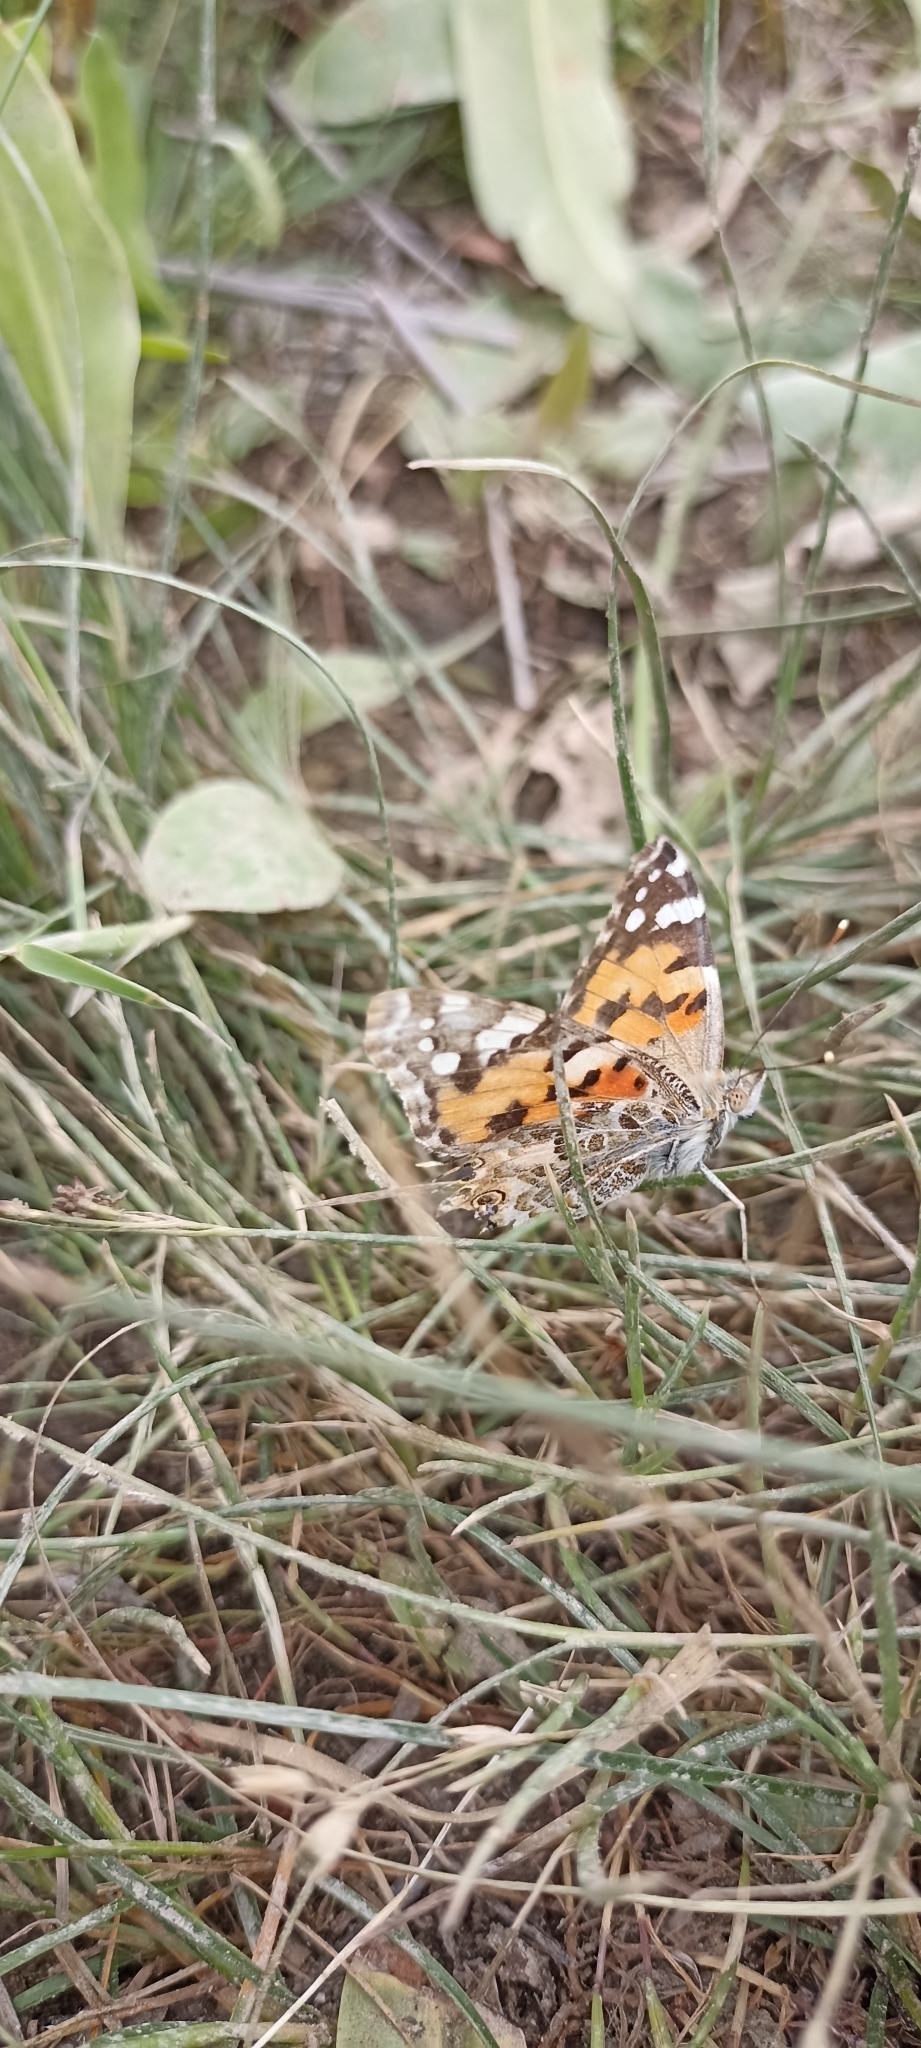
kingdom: Animalia
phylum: Arthropoda
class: Insecta
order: Lepidoptera
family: Nymphalidae
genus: Vanessa
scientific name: Vanessa cardui
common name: Painted lady
